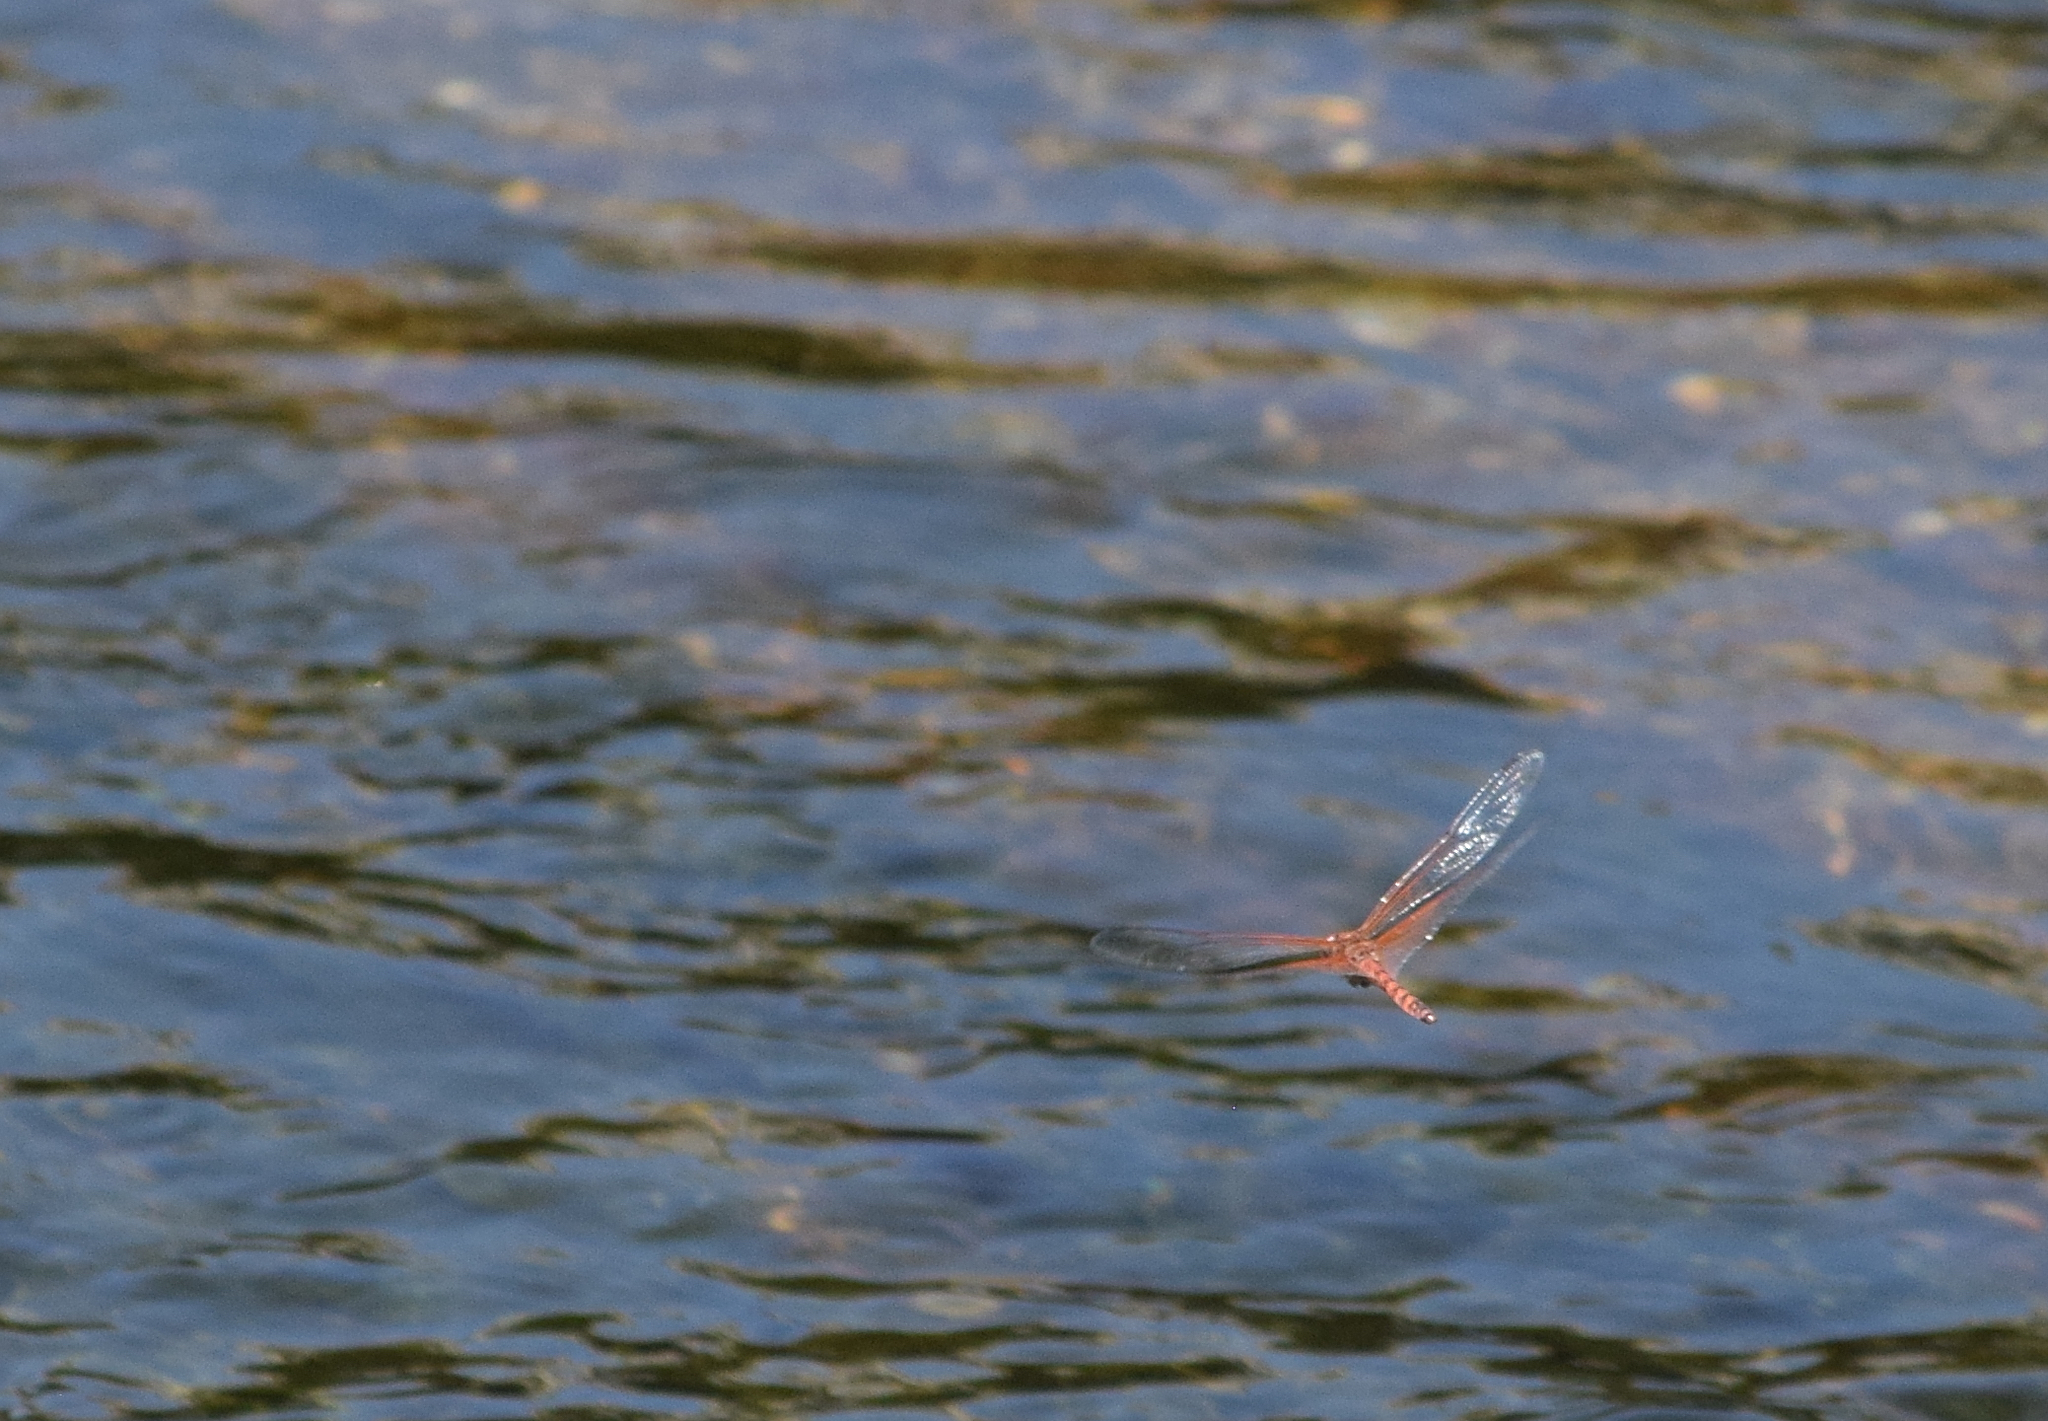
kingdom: Animalia
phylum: Arthropoda
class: Insecta
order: Odonata
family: Libellulidae
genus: Paltothemis
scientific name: Paltothemis lineatipes
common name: Red rock skimmer
